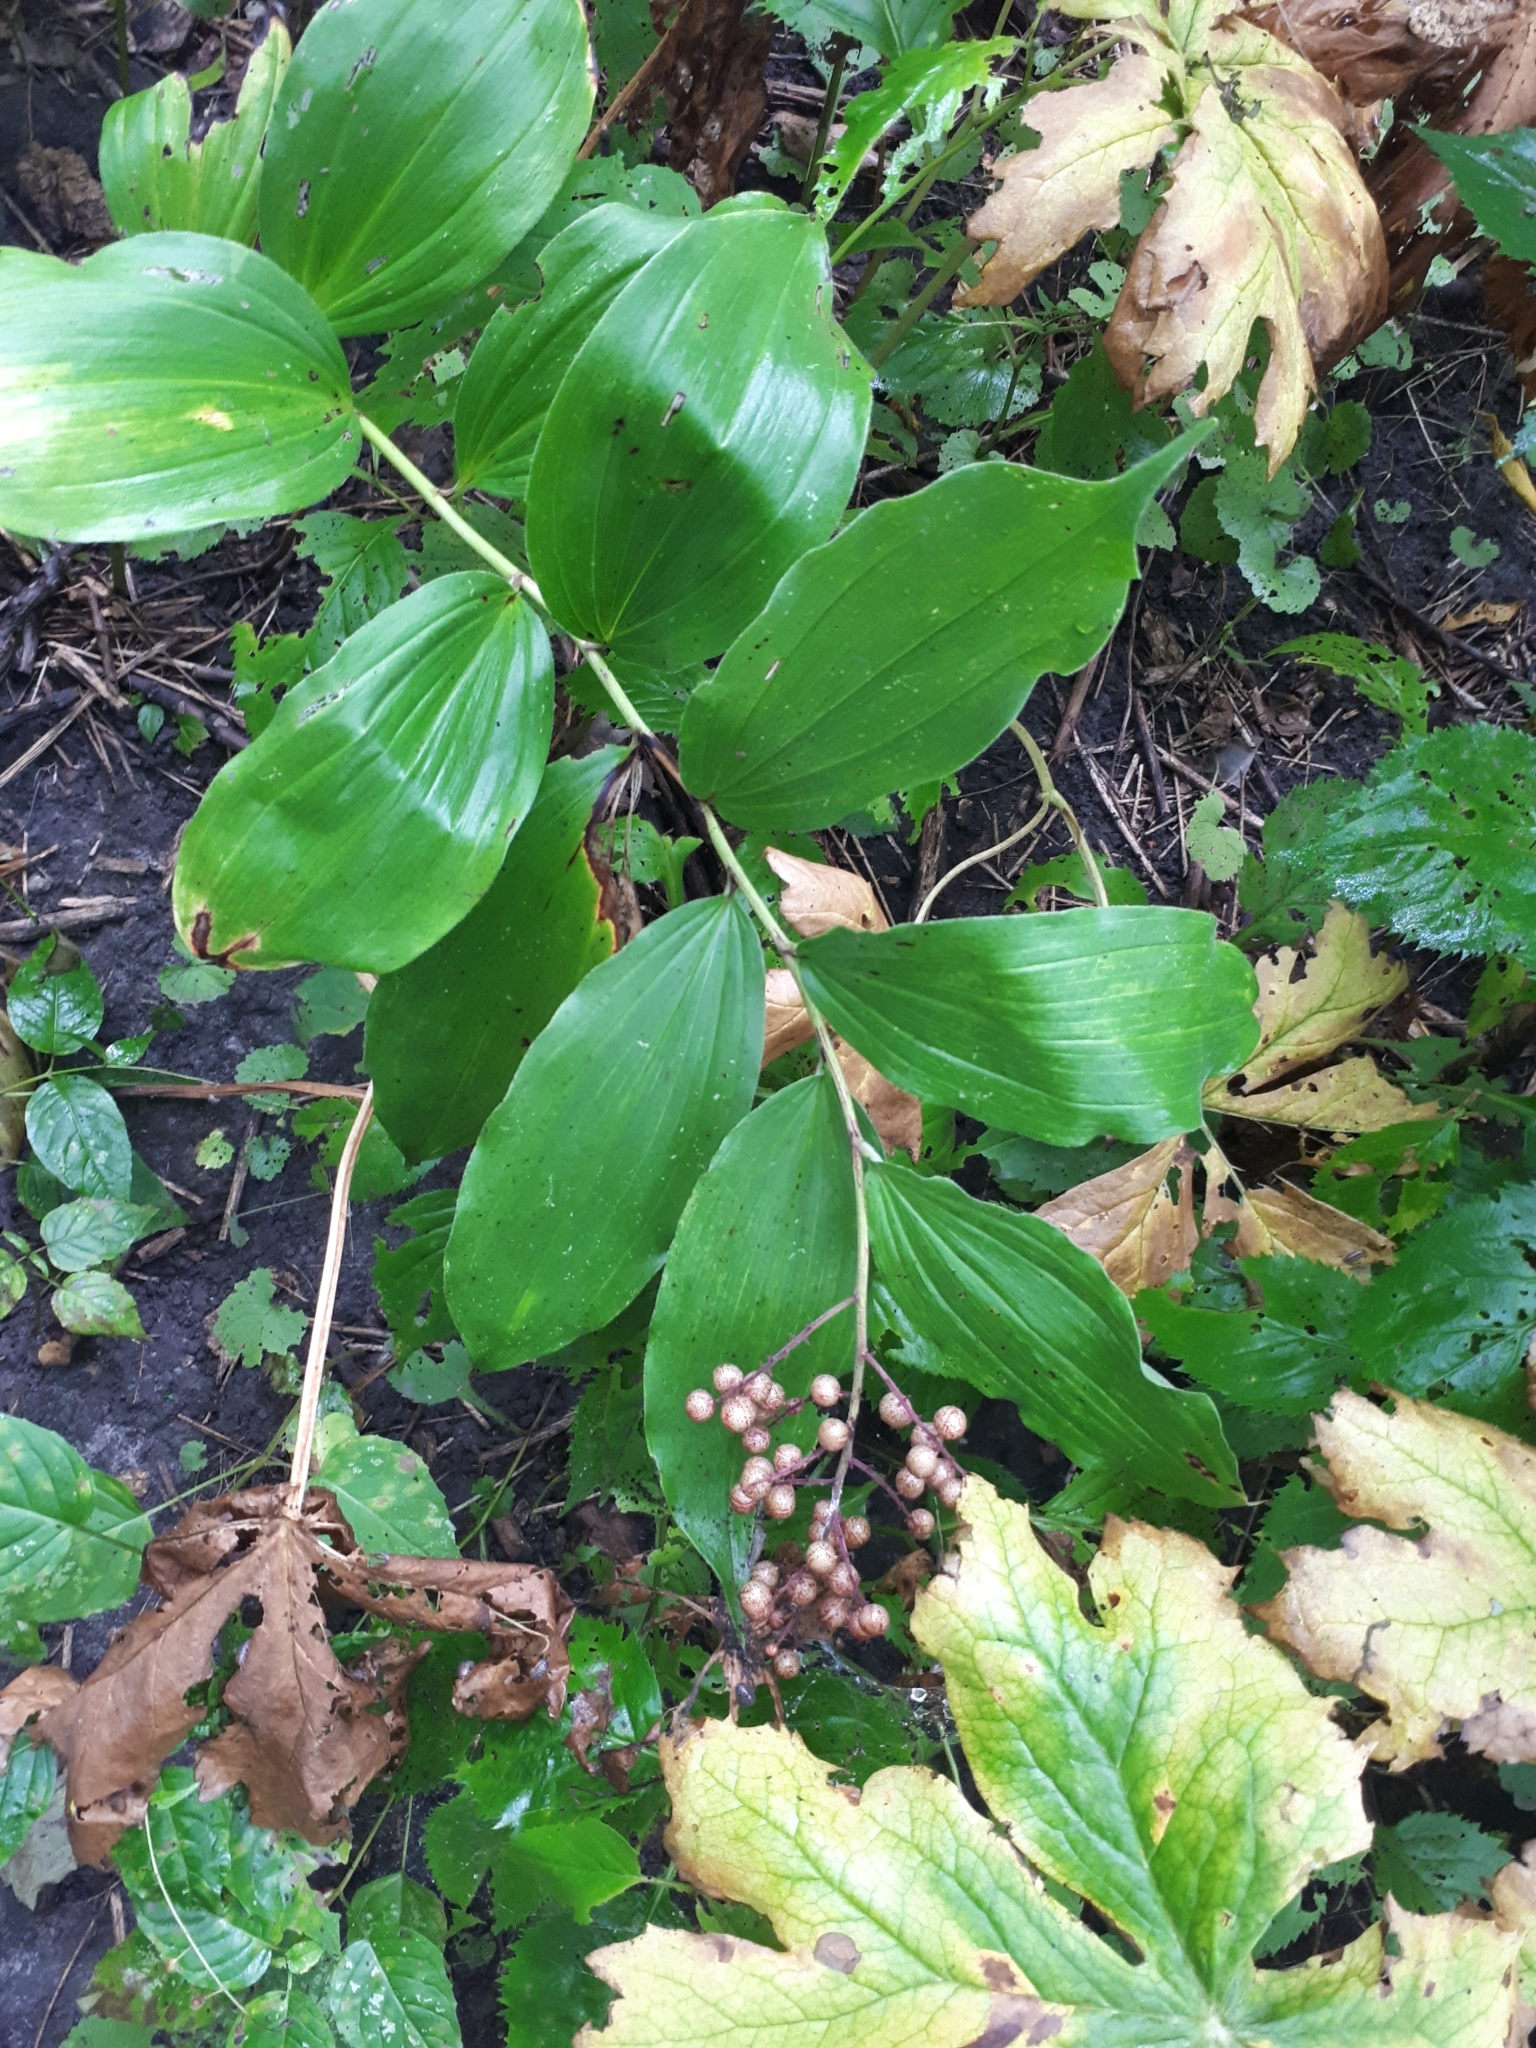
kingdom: Plantae
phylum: Tracheophyta
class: Liliopsida
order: Asparagales
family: Asparagaceae
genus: Maianthemum
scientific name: Maianthemum racemosum
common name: False spikenard
